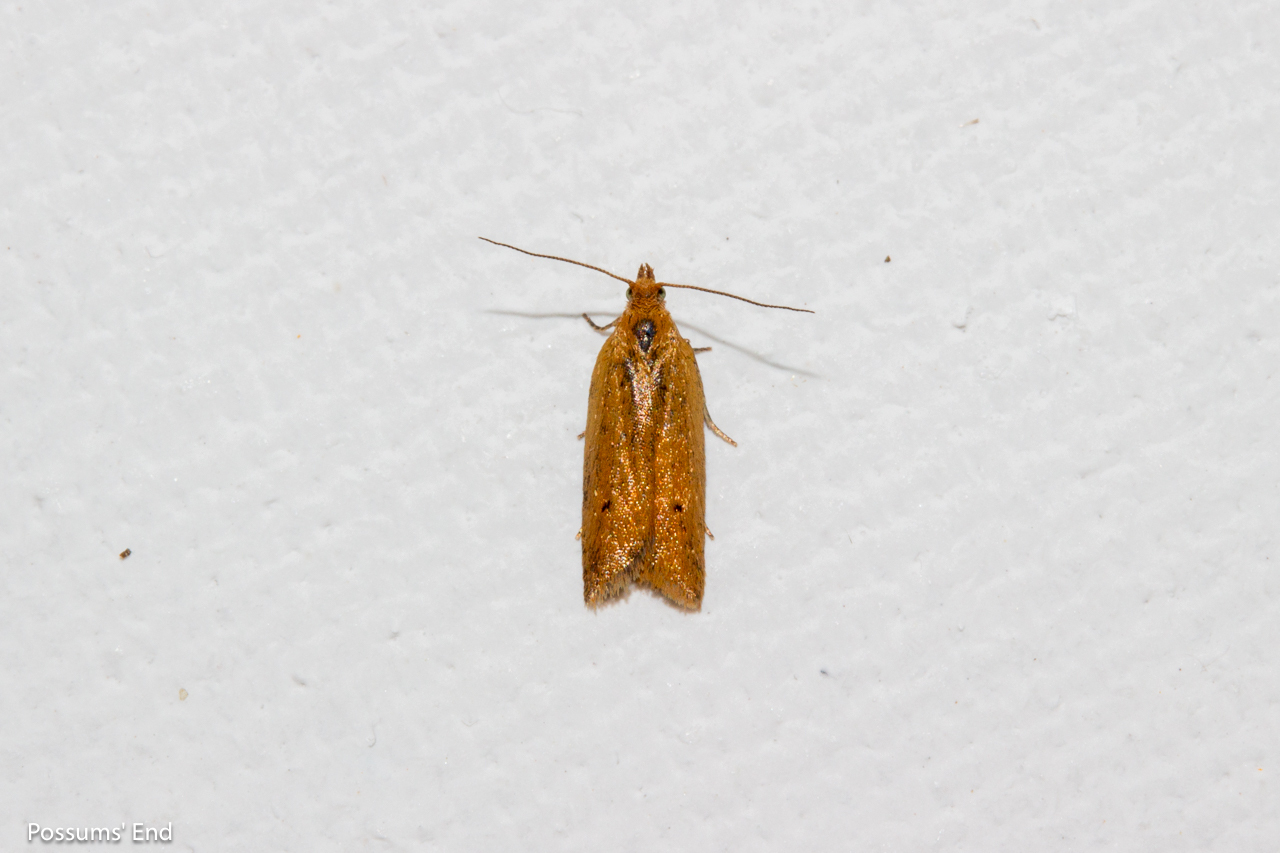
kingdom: Animalia
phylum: Arthropoda
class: Insecta
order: Lepidoptera
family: Tortricidae
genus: Epichorista
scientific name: Epichorista siriana
